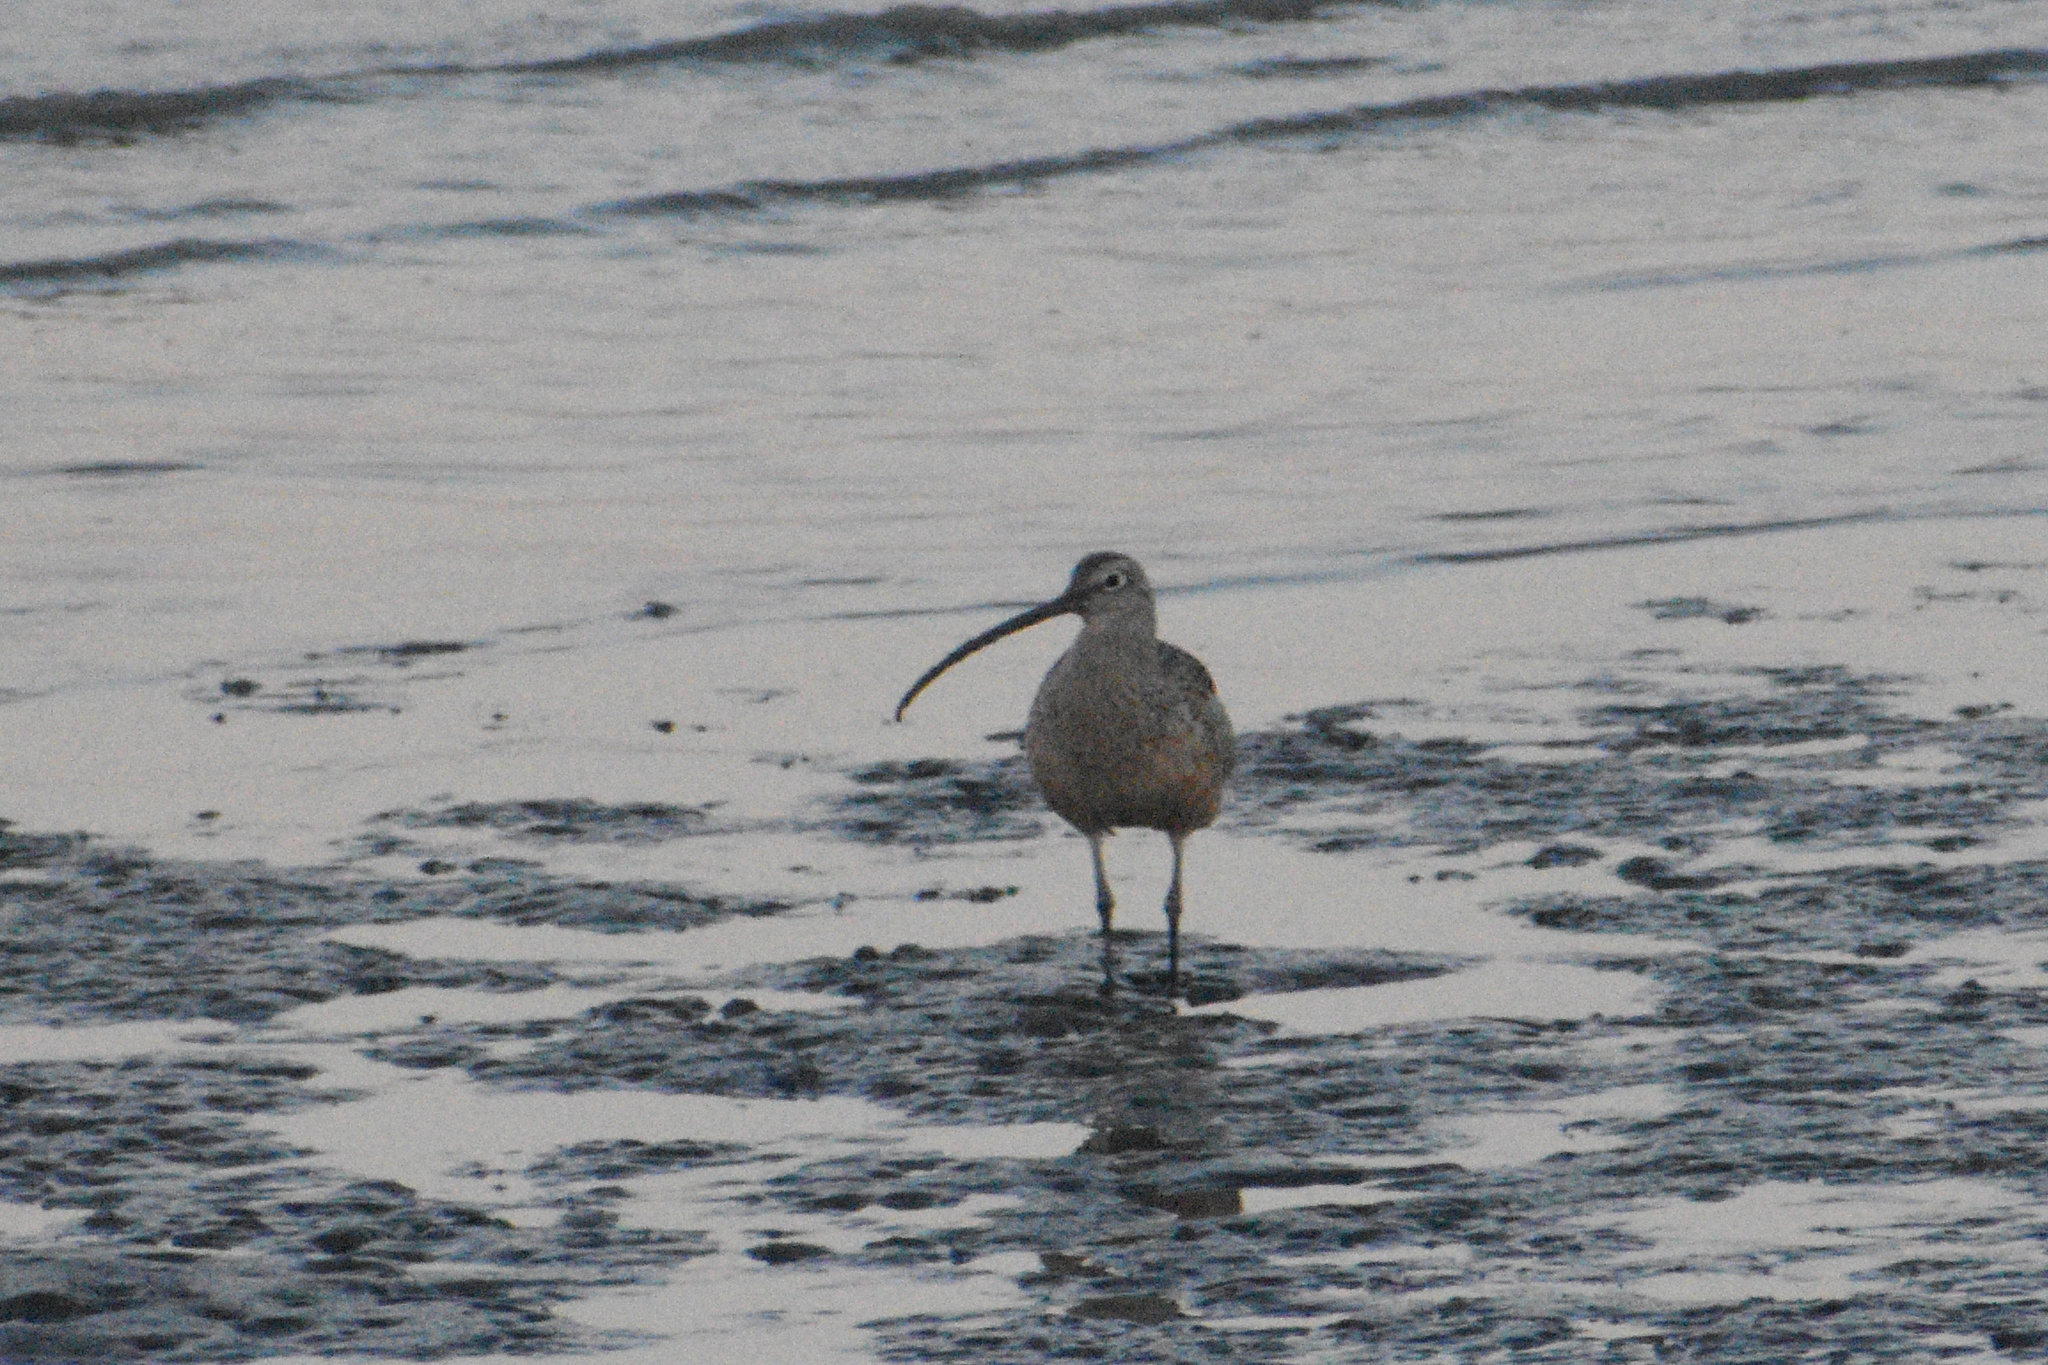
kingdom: Animalia
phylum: Chordata
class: Aves
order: Charadriiformes
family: Scolopacidae
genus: Numenius
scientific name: Numenius americanus
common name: Long-billed curlew
